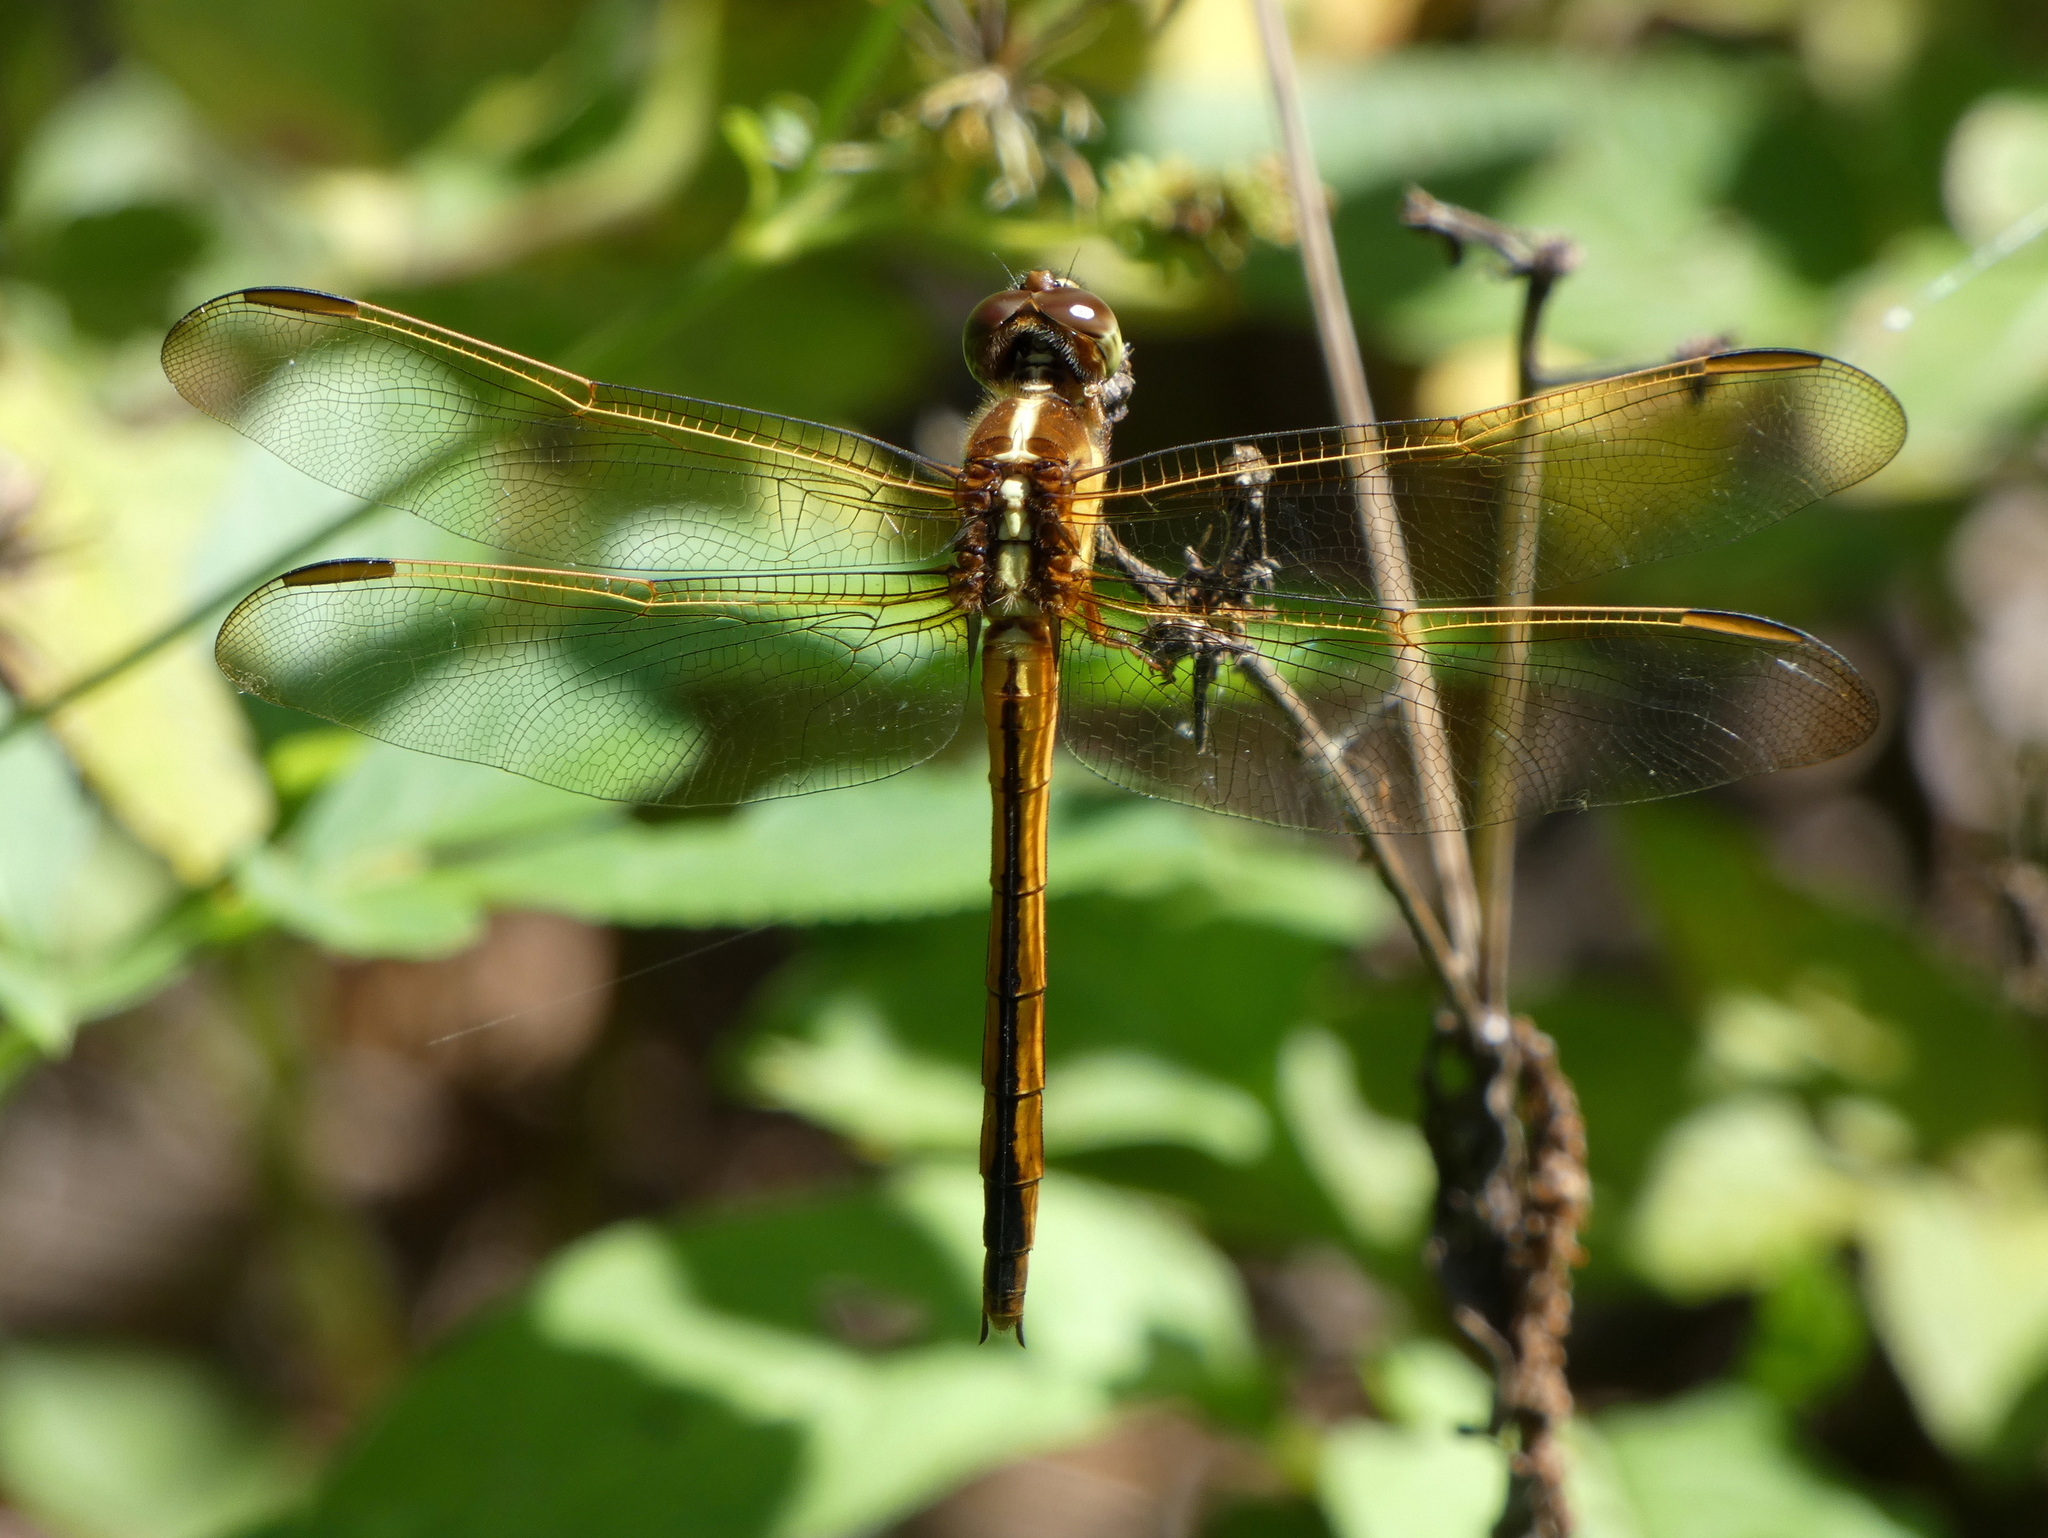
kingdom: Animalia
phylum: Arthropoda
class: Insecta
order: Odonata
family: Libellulidae
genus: Libellula
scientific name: Libellula needhami
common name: Needham's skimmer
